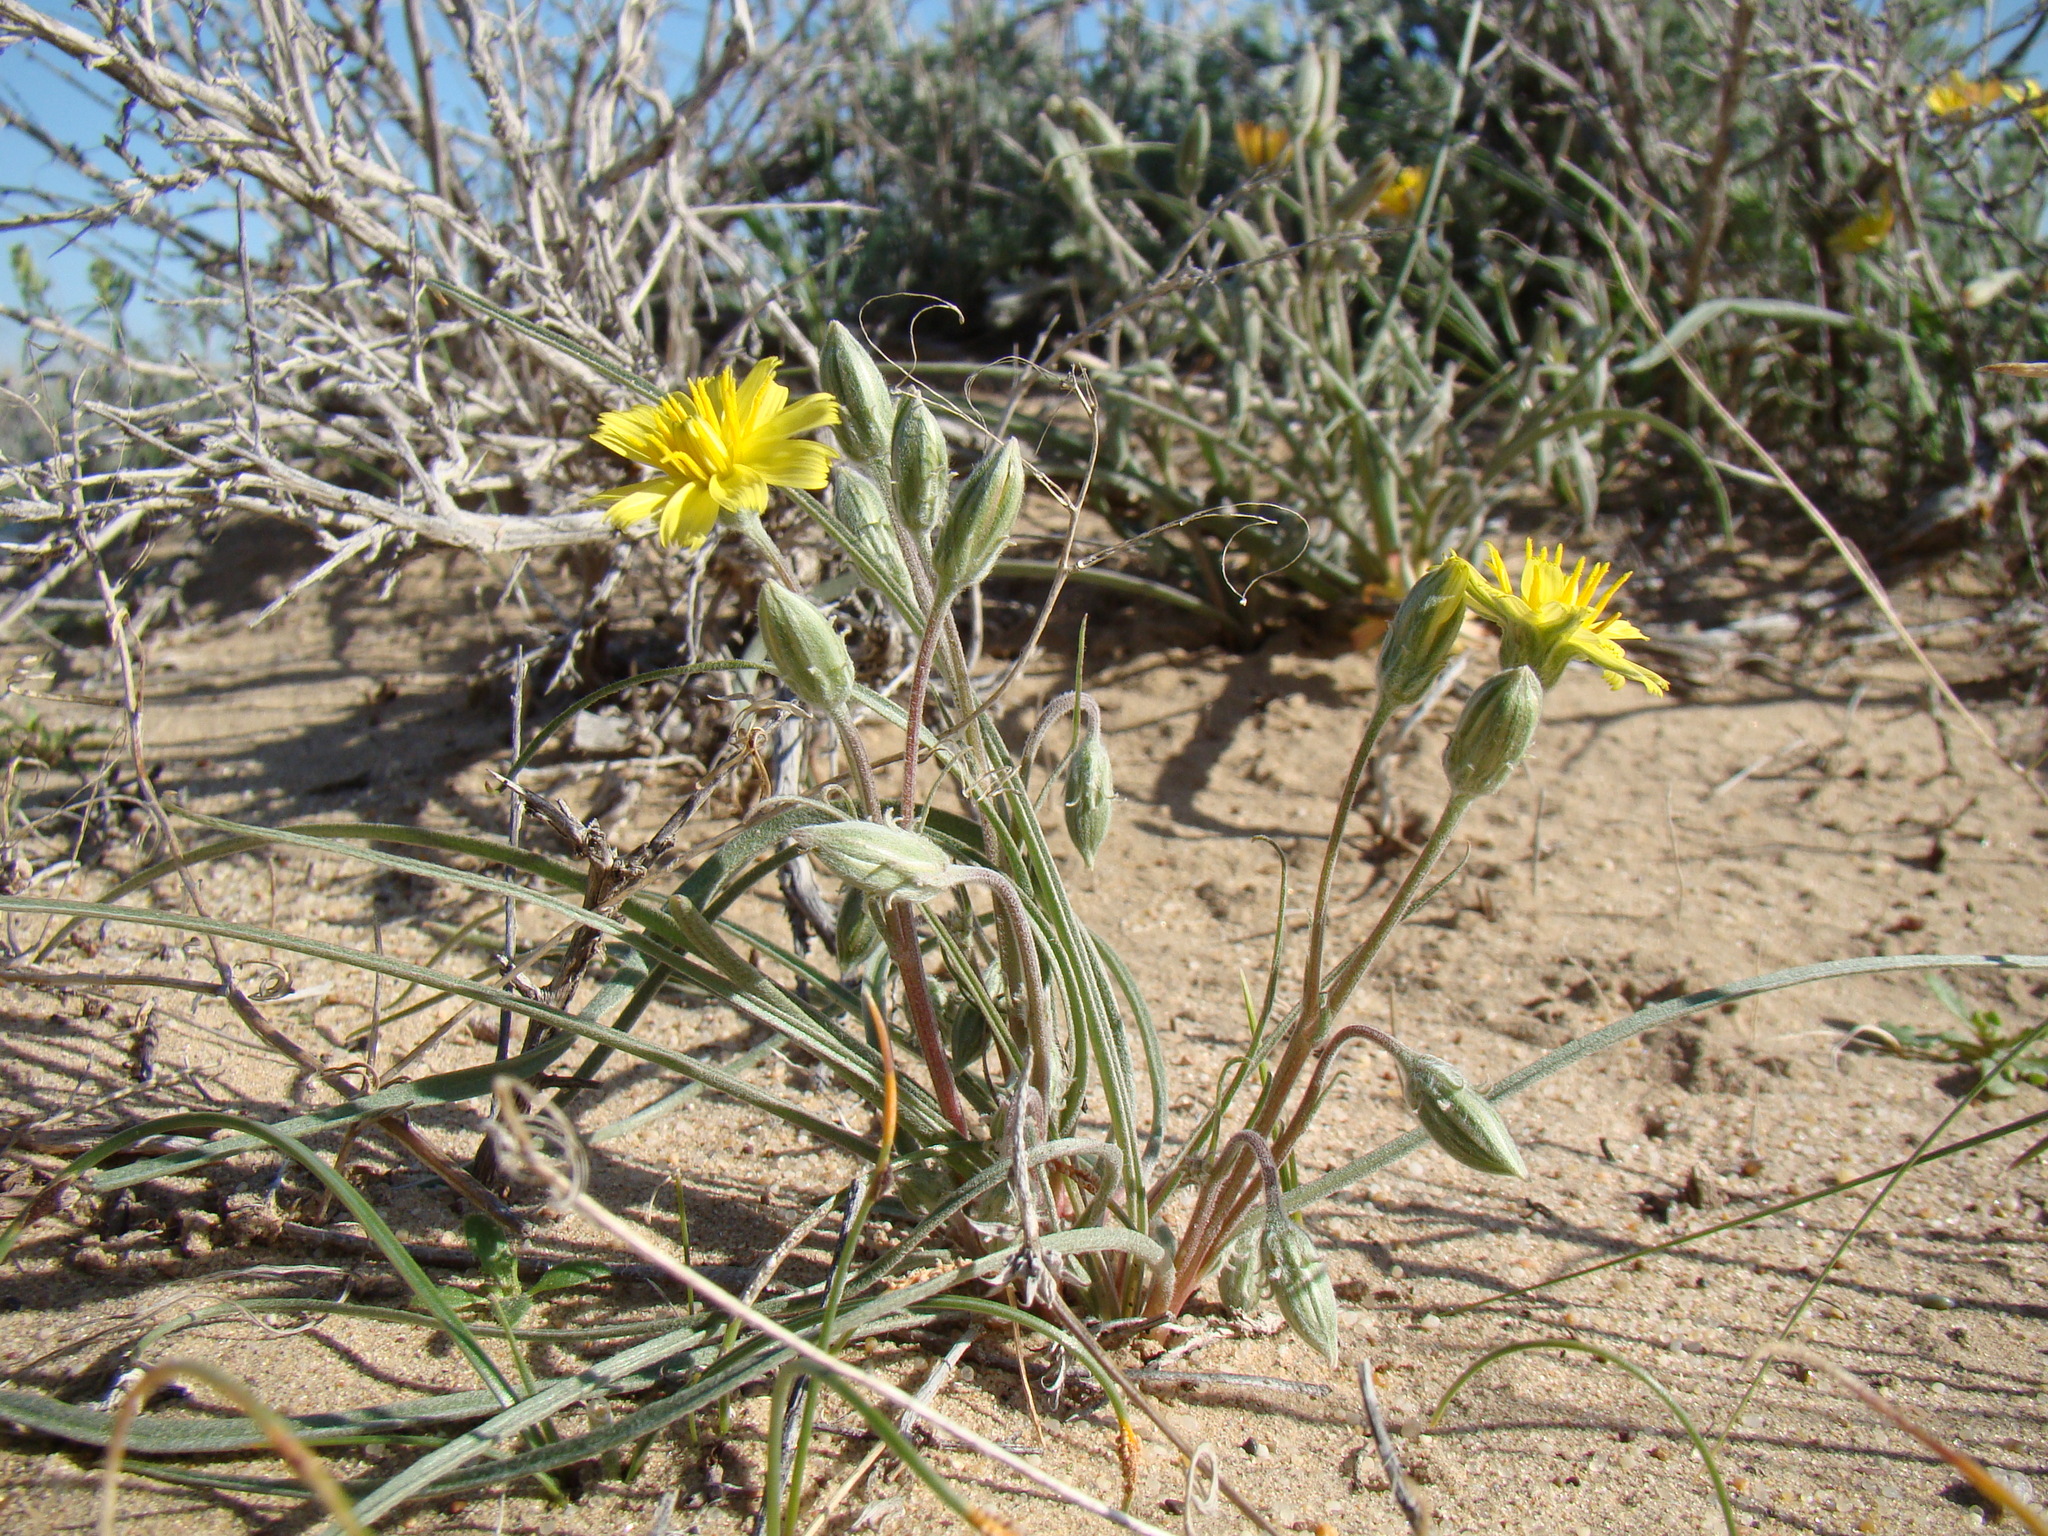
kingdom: Plantae
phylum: Tracheophyta
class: Magnoliopsida
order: Asterales
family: Asteraceae
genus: Gelasia
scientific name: Gelasia tuberosa
